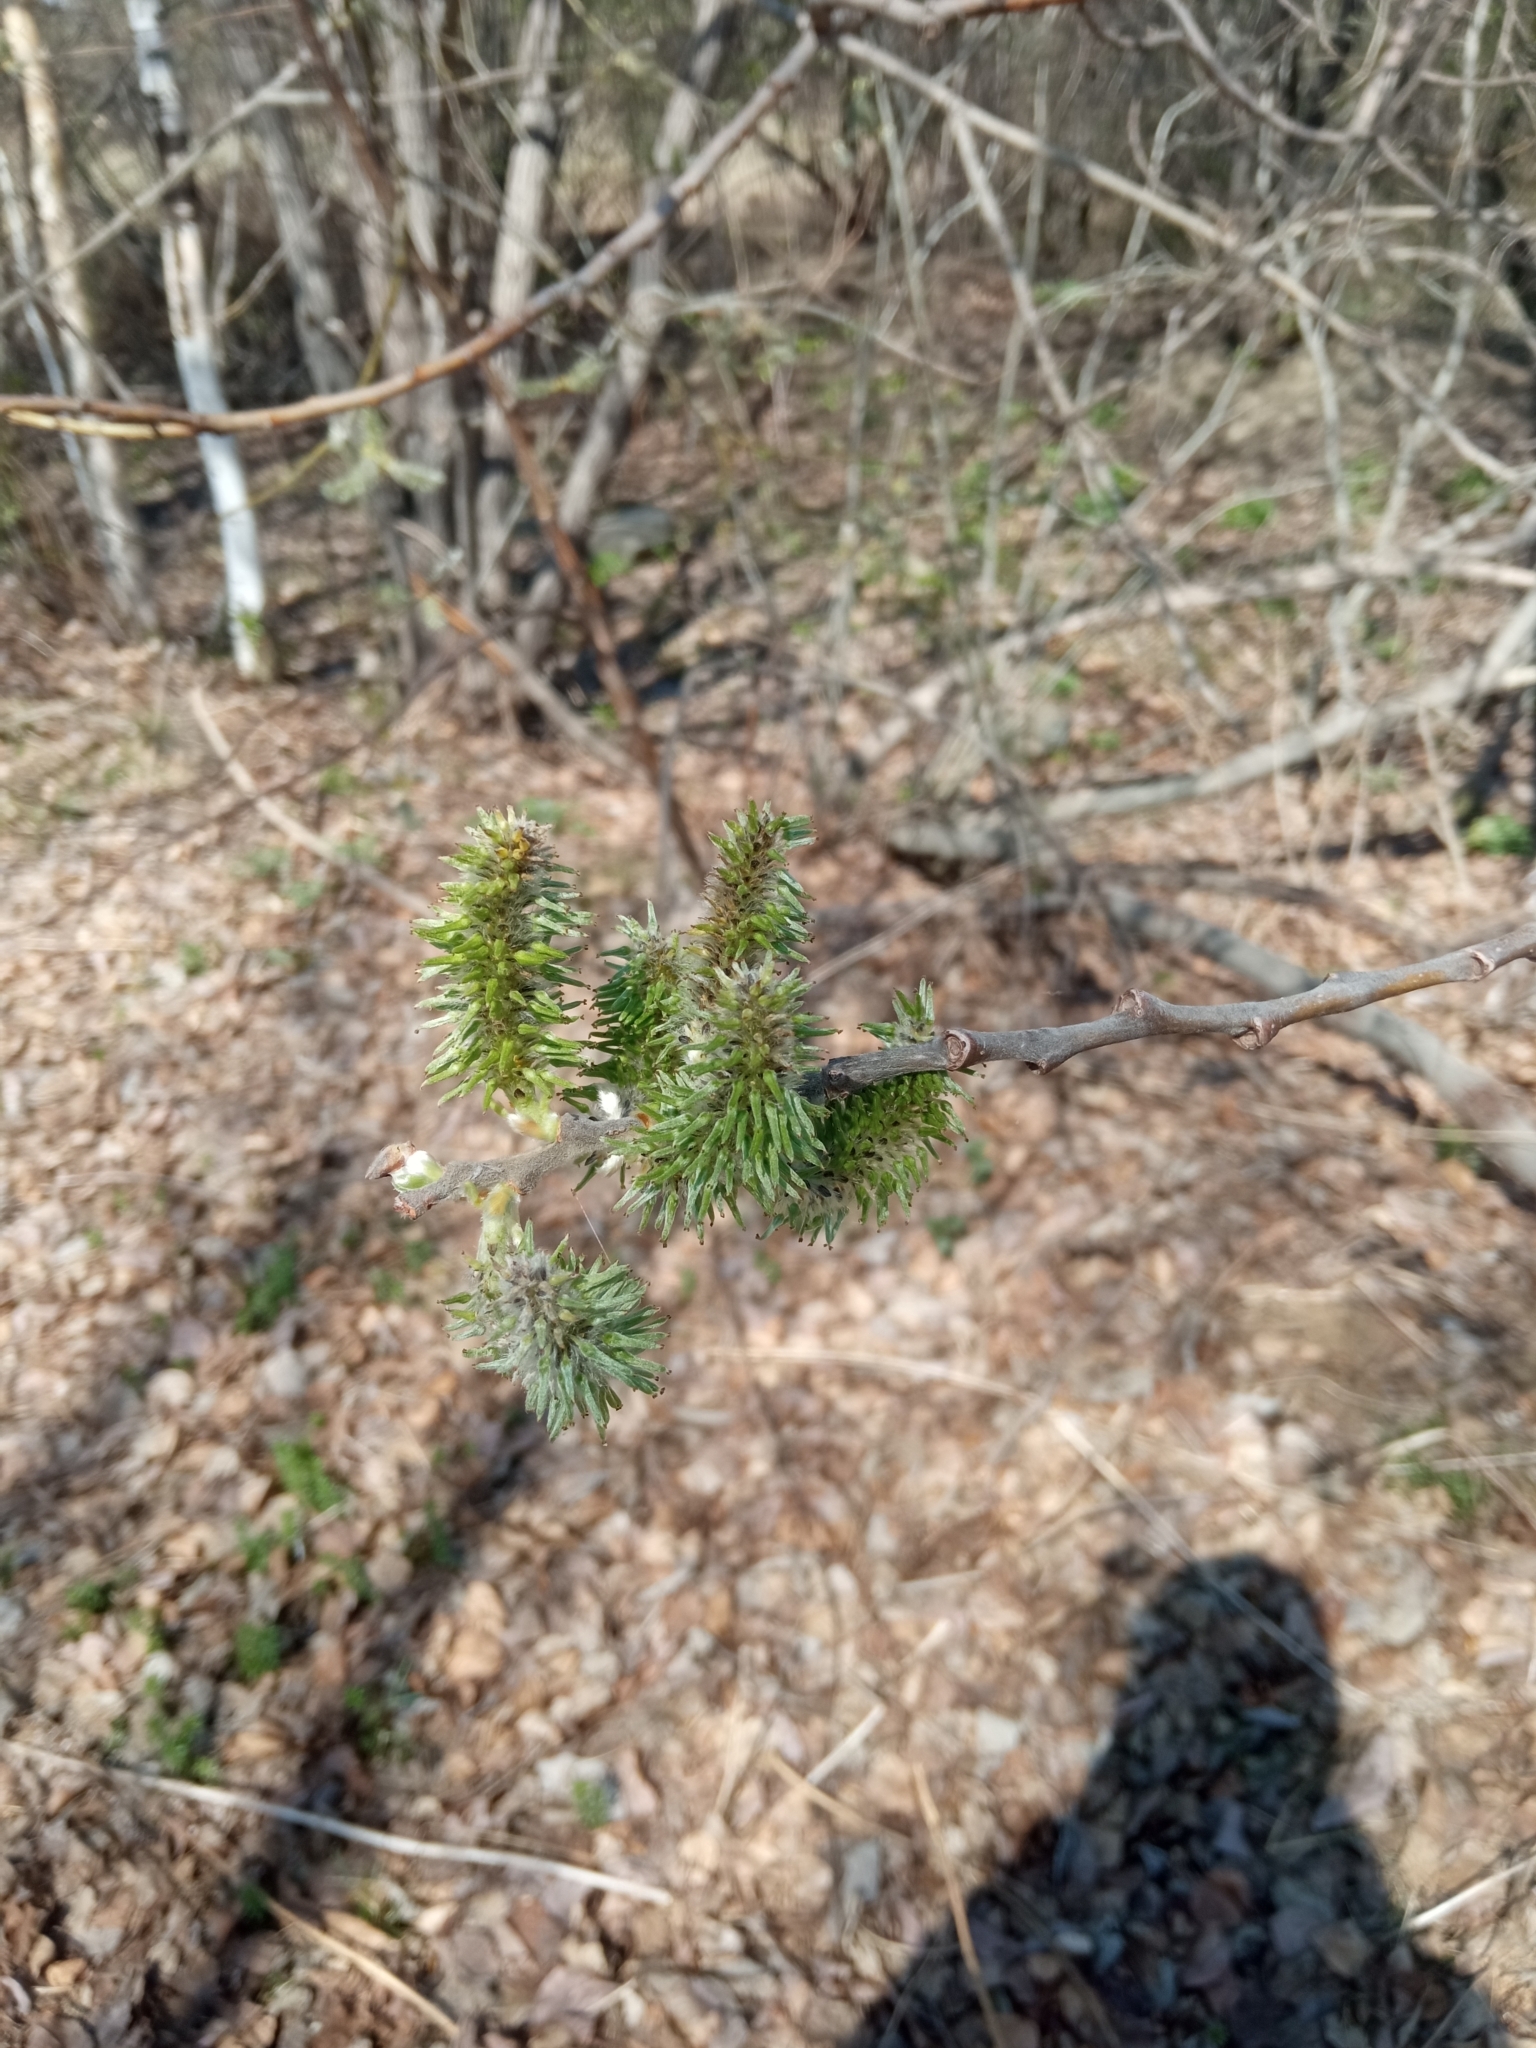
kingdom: Plantae
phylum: Tracheophyta
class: Magnoliopsida
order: Malpighiales
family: Salicaceae
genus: Salix
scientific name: Salix cinerea
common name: Common sallow
